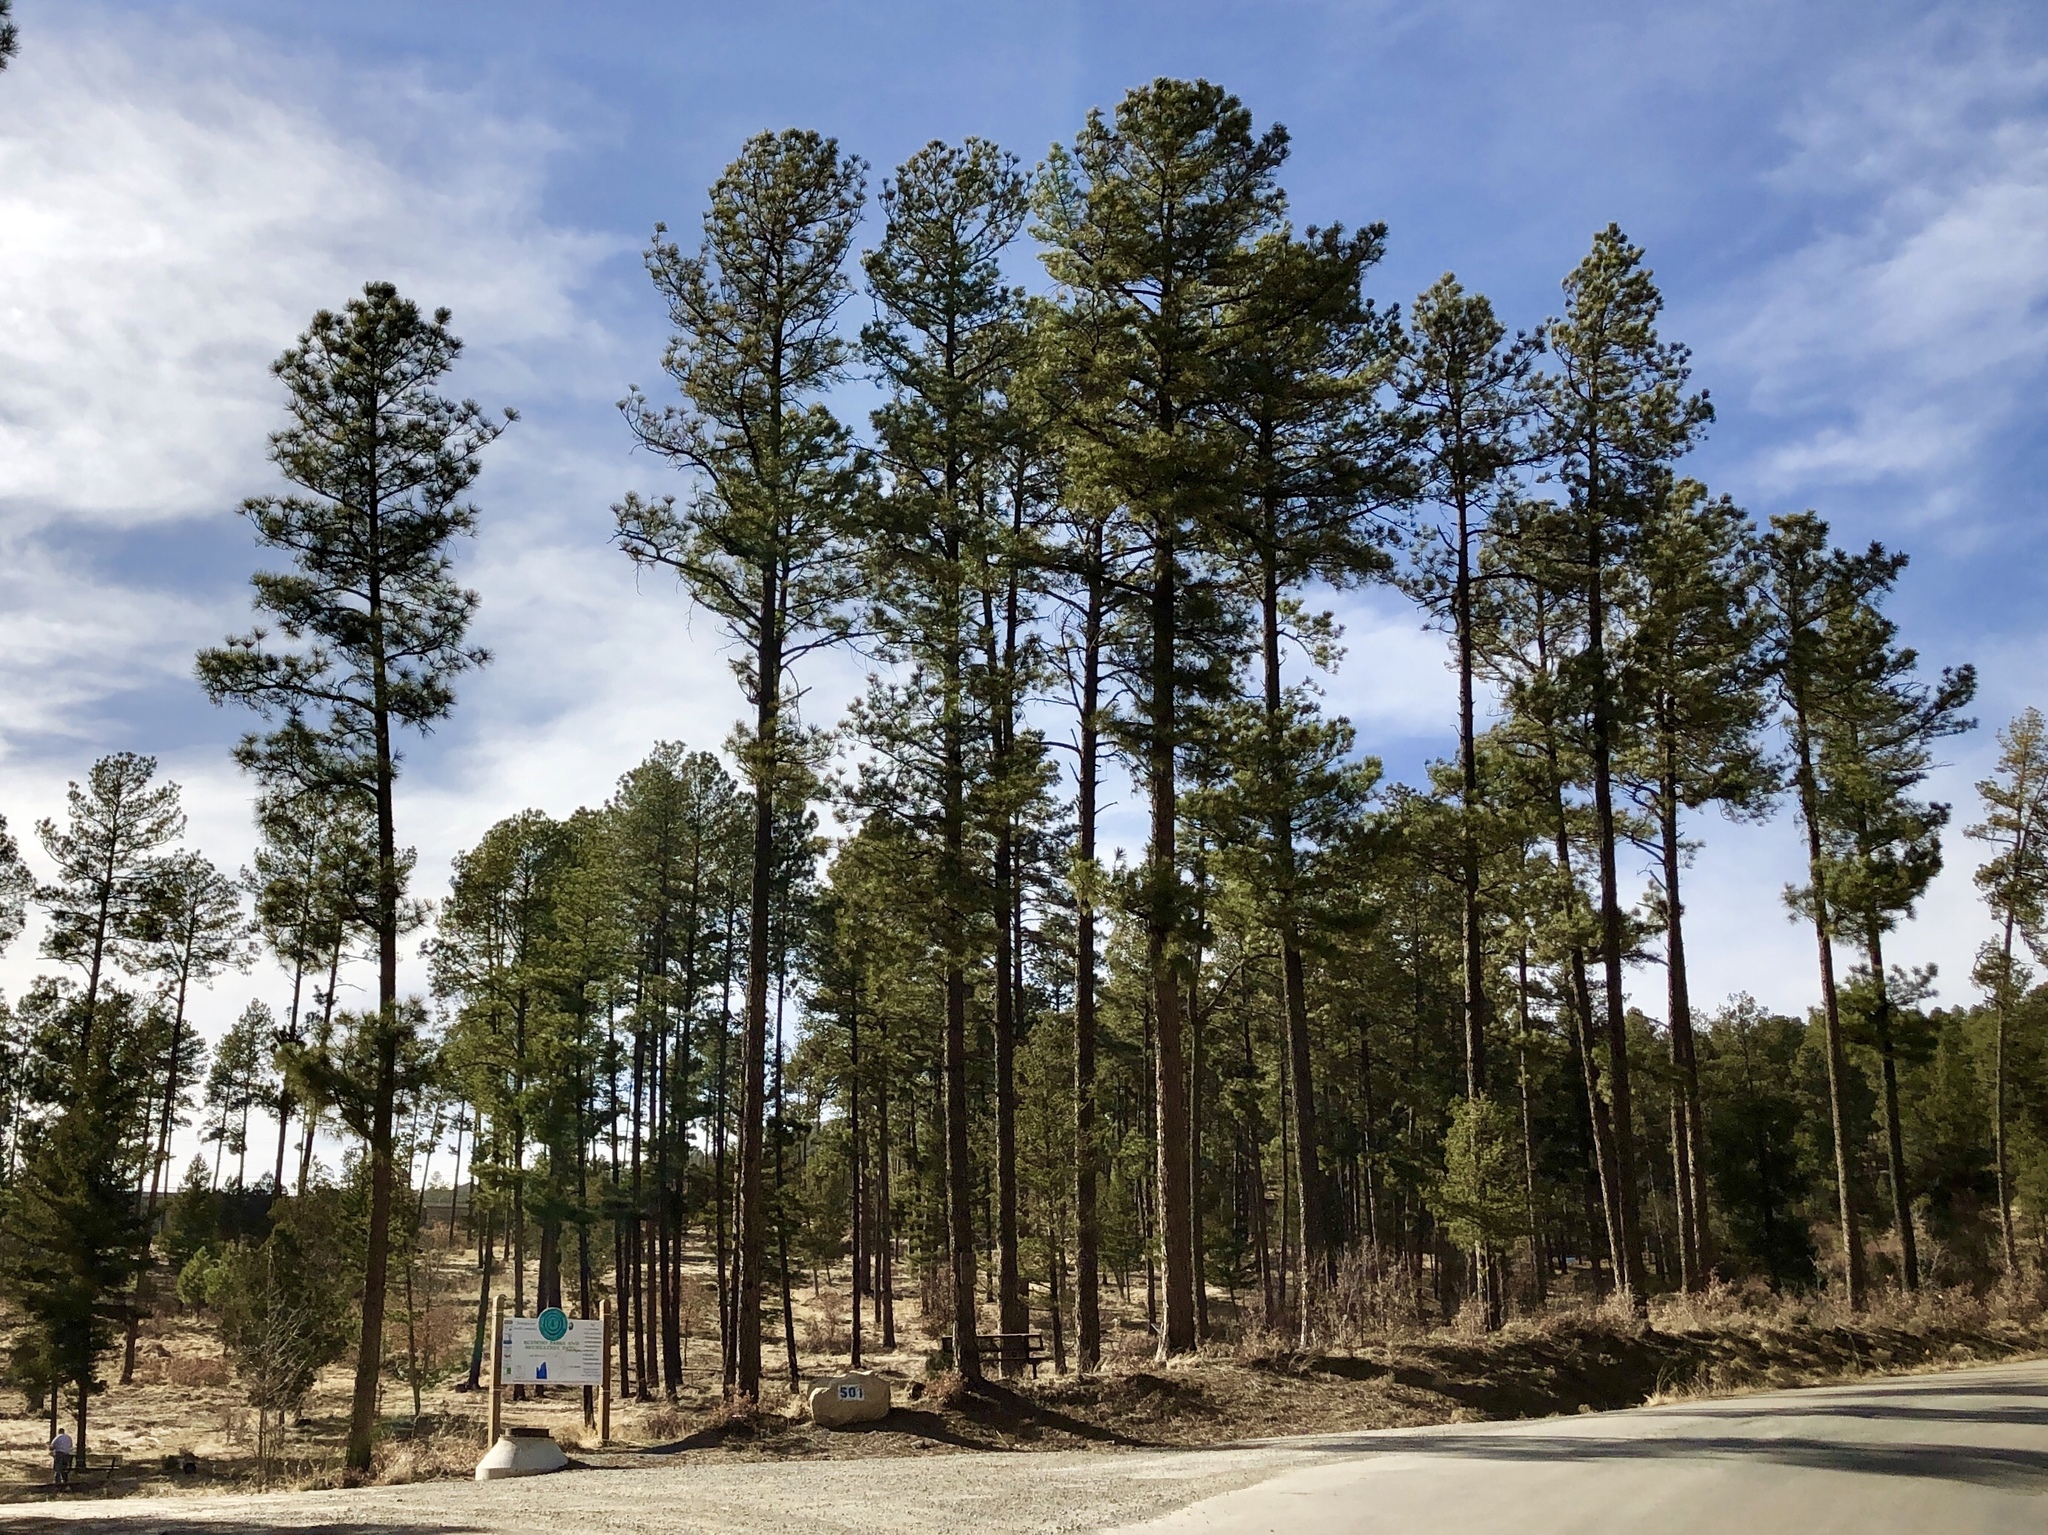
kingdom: Plantae
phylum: Tracheophyta
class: Pinopsida
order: Pinales
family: Pinaceae
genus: Pinus
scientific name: Pinus ponderosa
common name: Western yellow-pine
